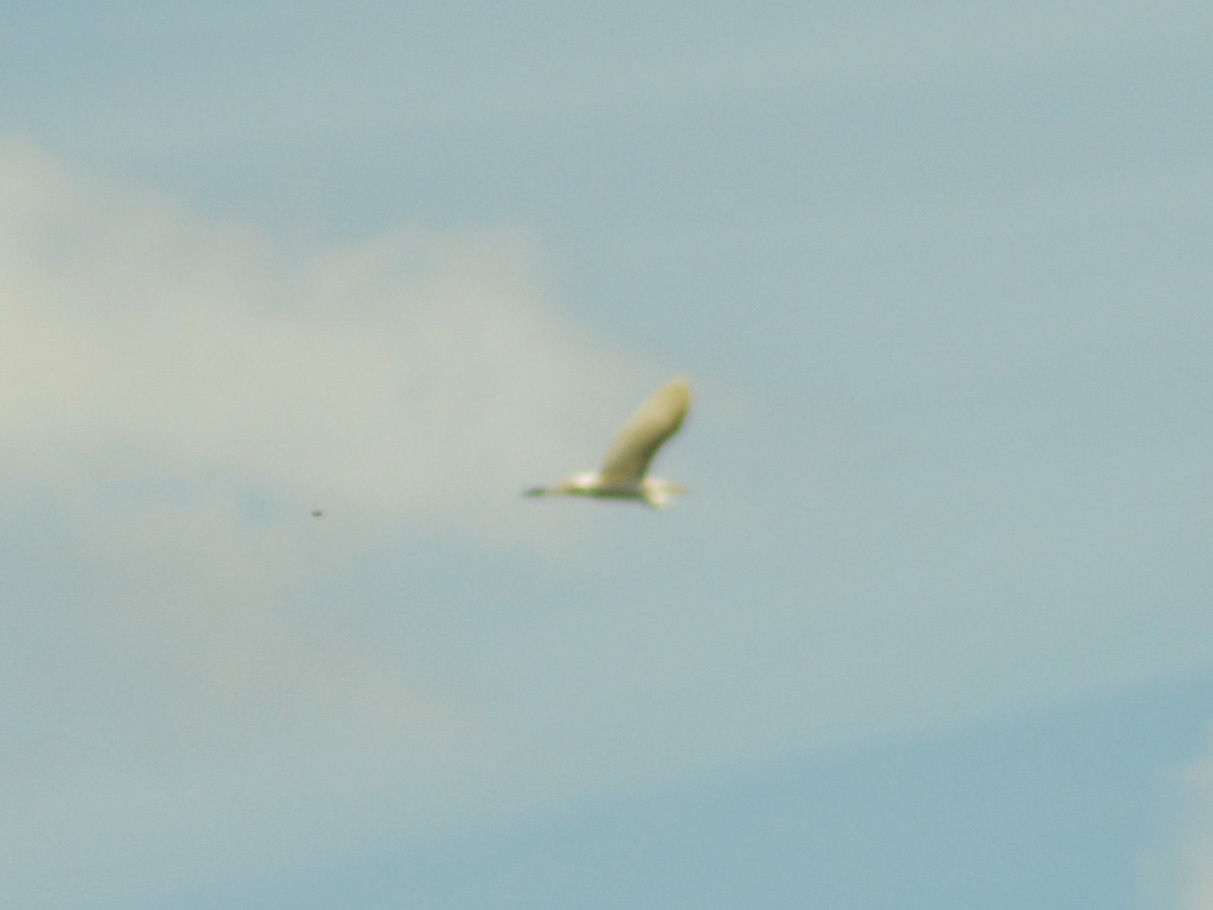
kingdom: Animalia
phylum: Chordata
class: Aves
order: Pelecaniformes
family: Ardeidae
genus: Ardea
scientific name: Ardea alba
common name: Great egret
